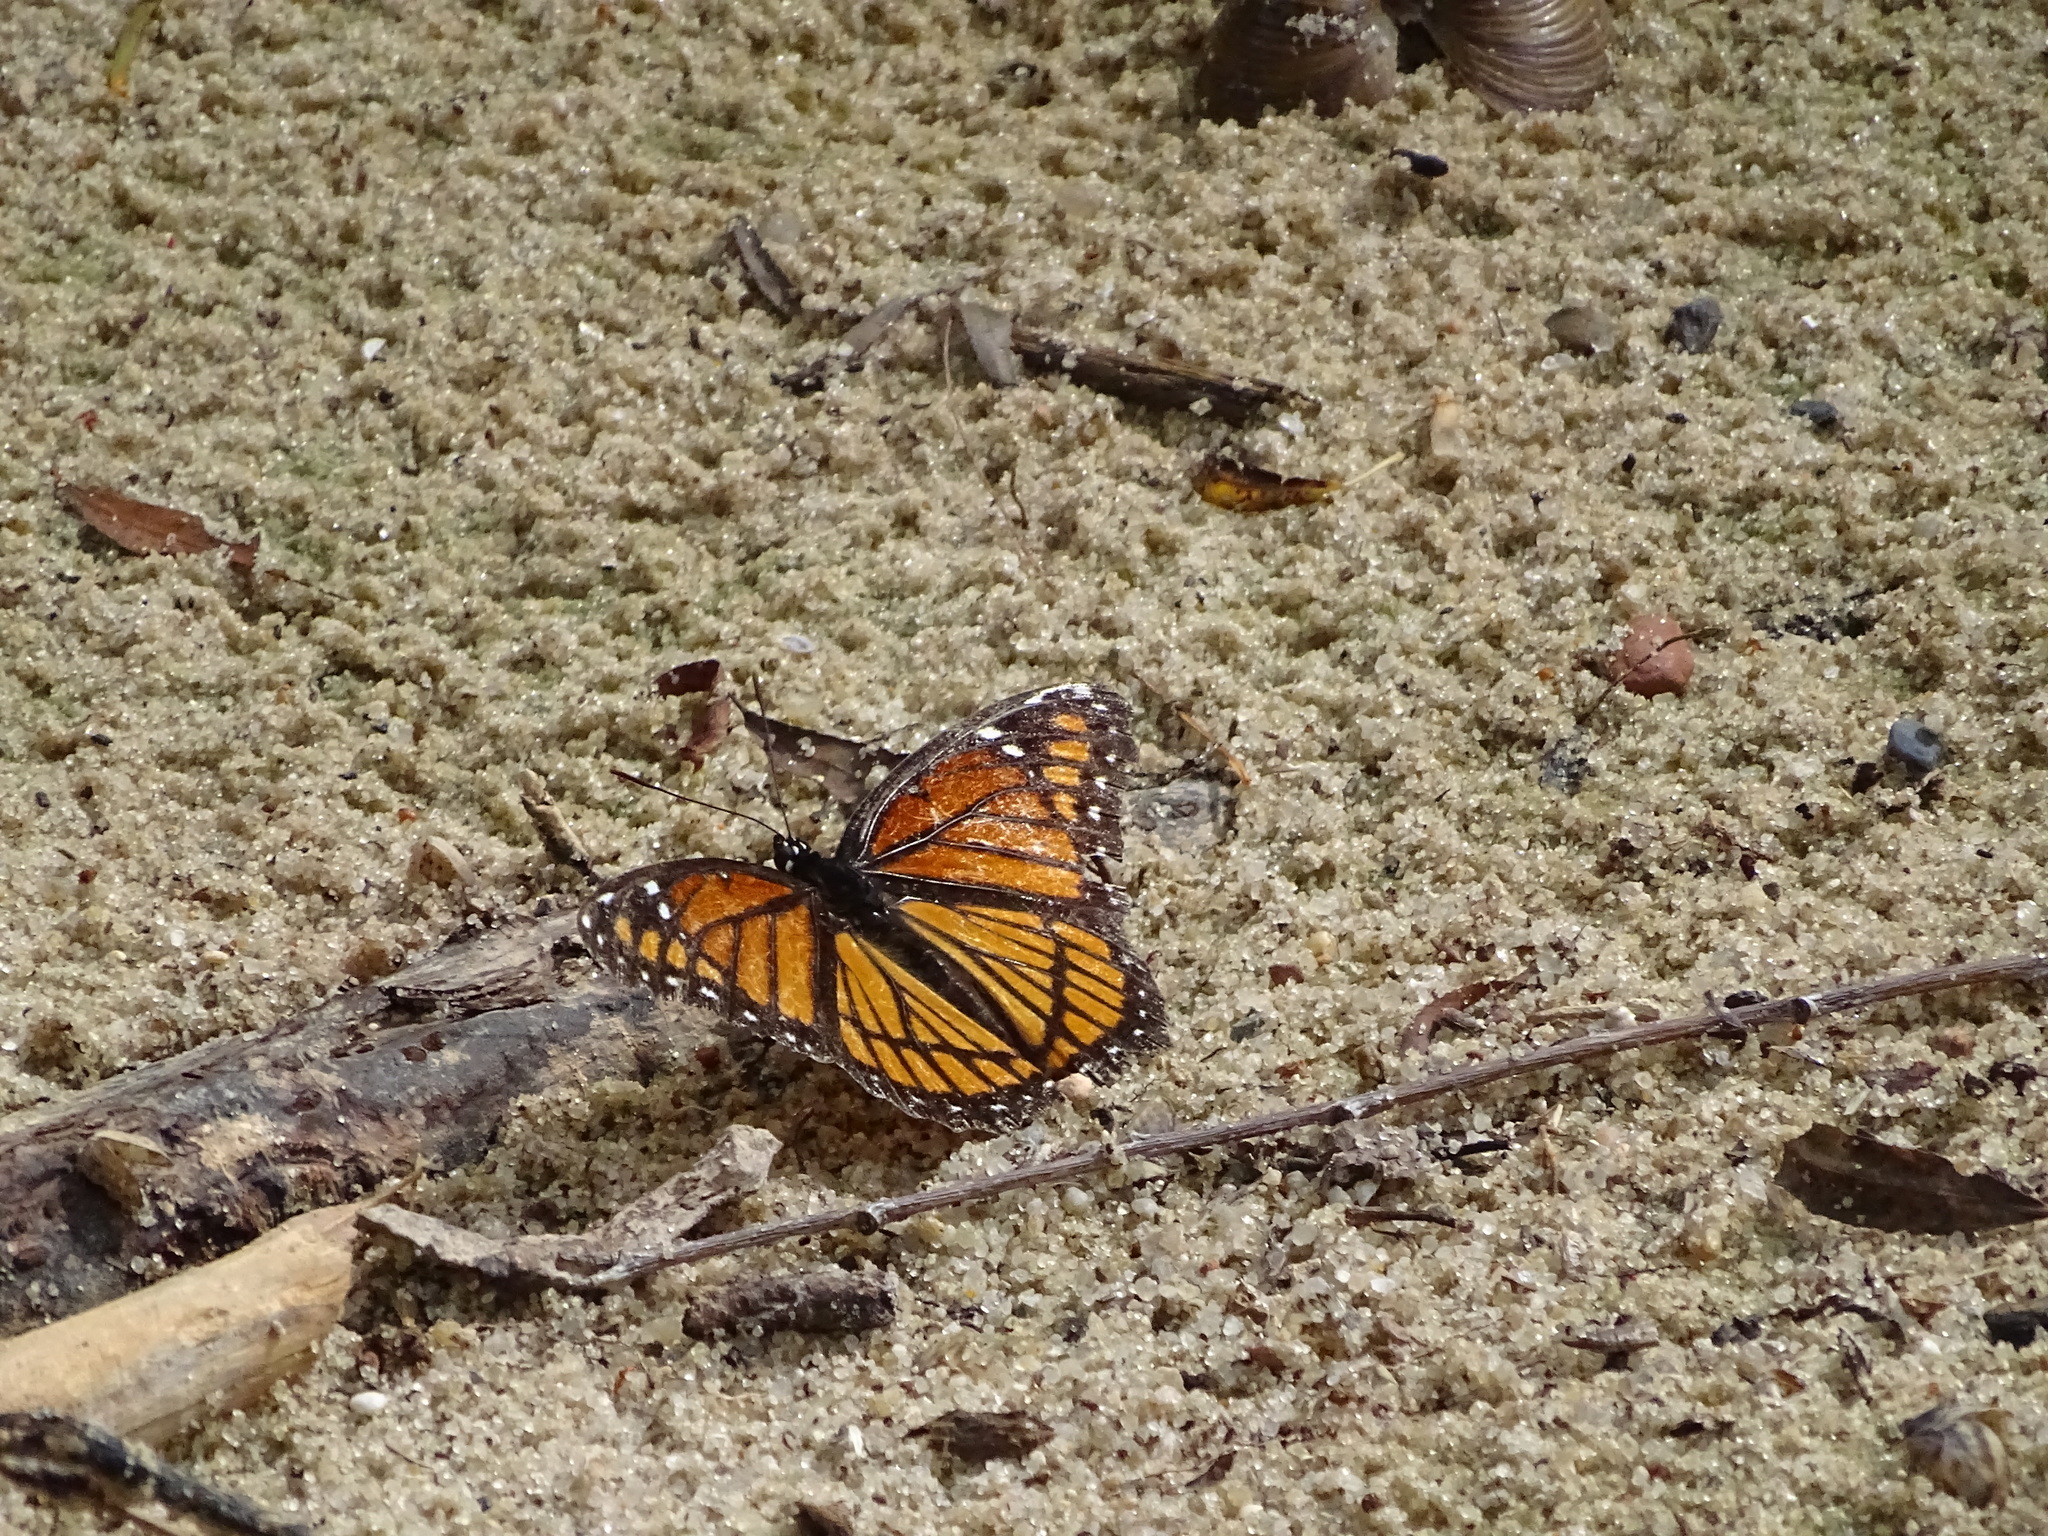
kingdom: Animalia
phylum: Arthropoda
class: Insecta
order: Lepidoptera
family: Nymphalidae
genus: Limenitis
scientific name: Limenitis archippus
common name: Viceroy
